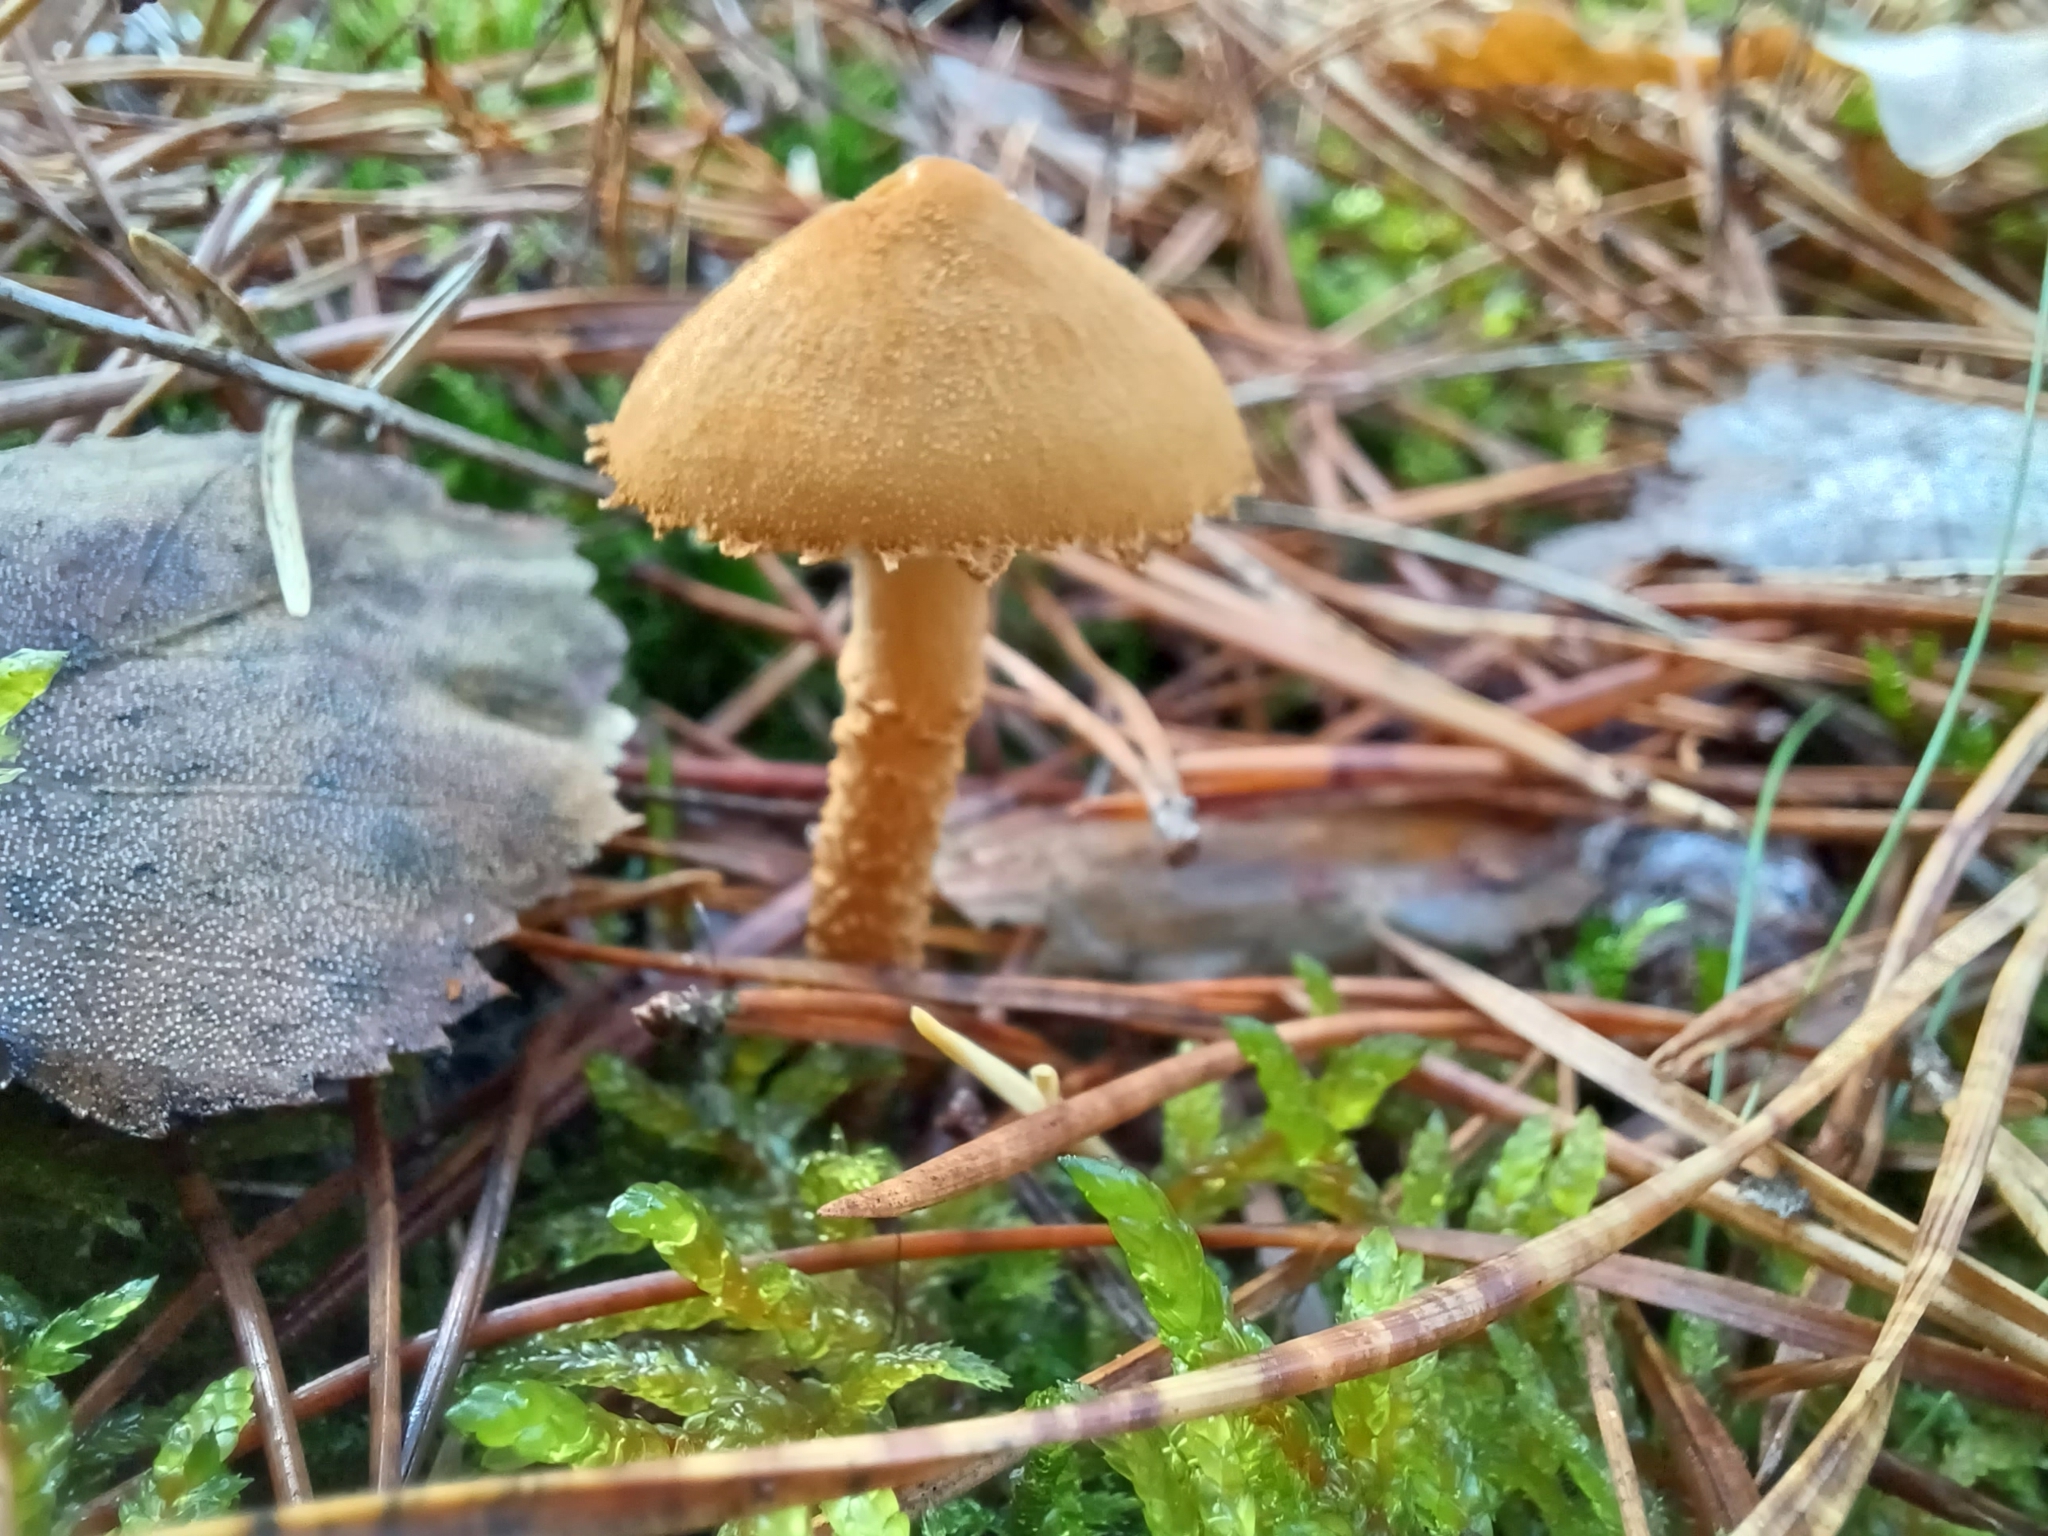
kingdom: Fungi
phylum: Basidiomycota
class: Agaricomycetes
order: Agaricales
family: Tricholomataceae
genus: Cystoderma
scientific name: Cystoderma amianthinum
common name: Earthy powdercap
